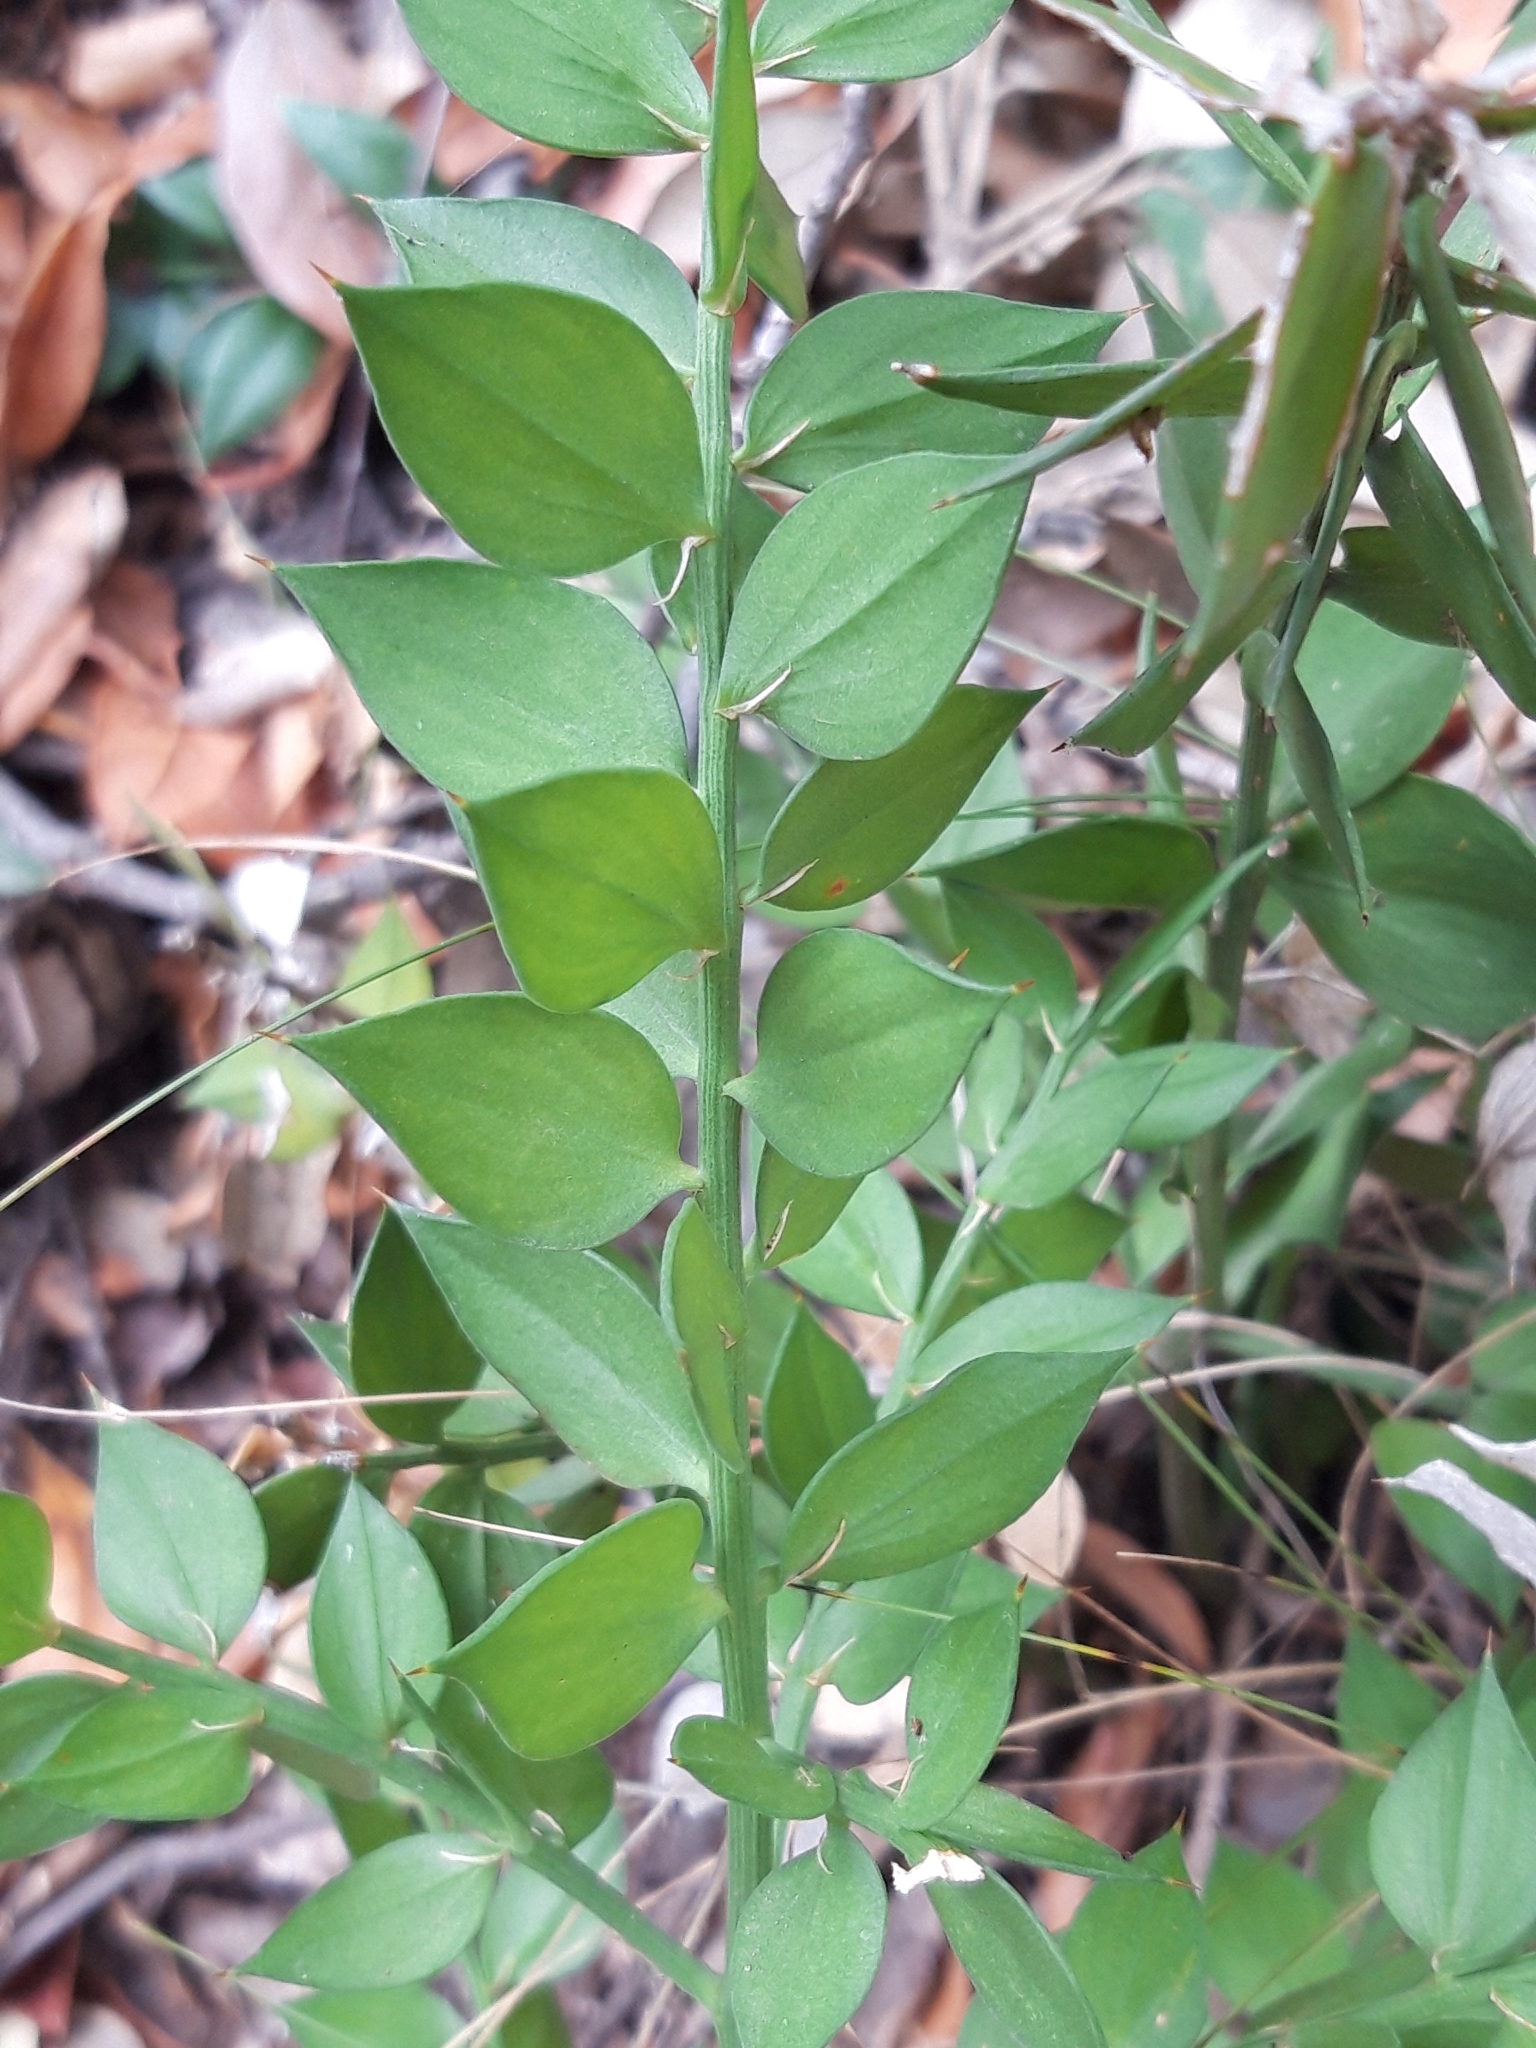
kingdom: Plantae
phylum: Tracheophyta
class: Liliopsida
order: Asparagales
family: Asparagaceae
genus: Ruscus
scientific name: Ruscus aculeatus
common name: Butcher's-broom
